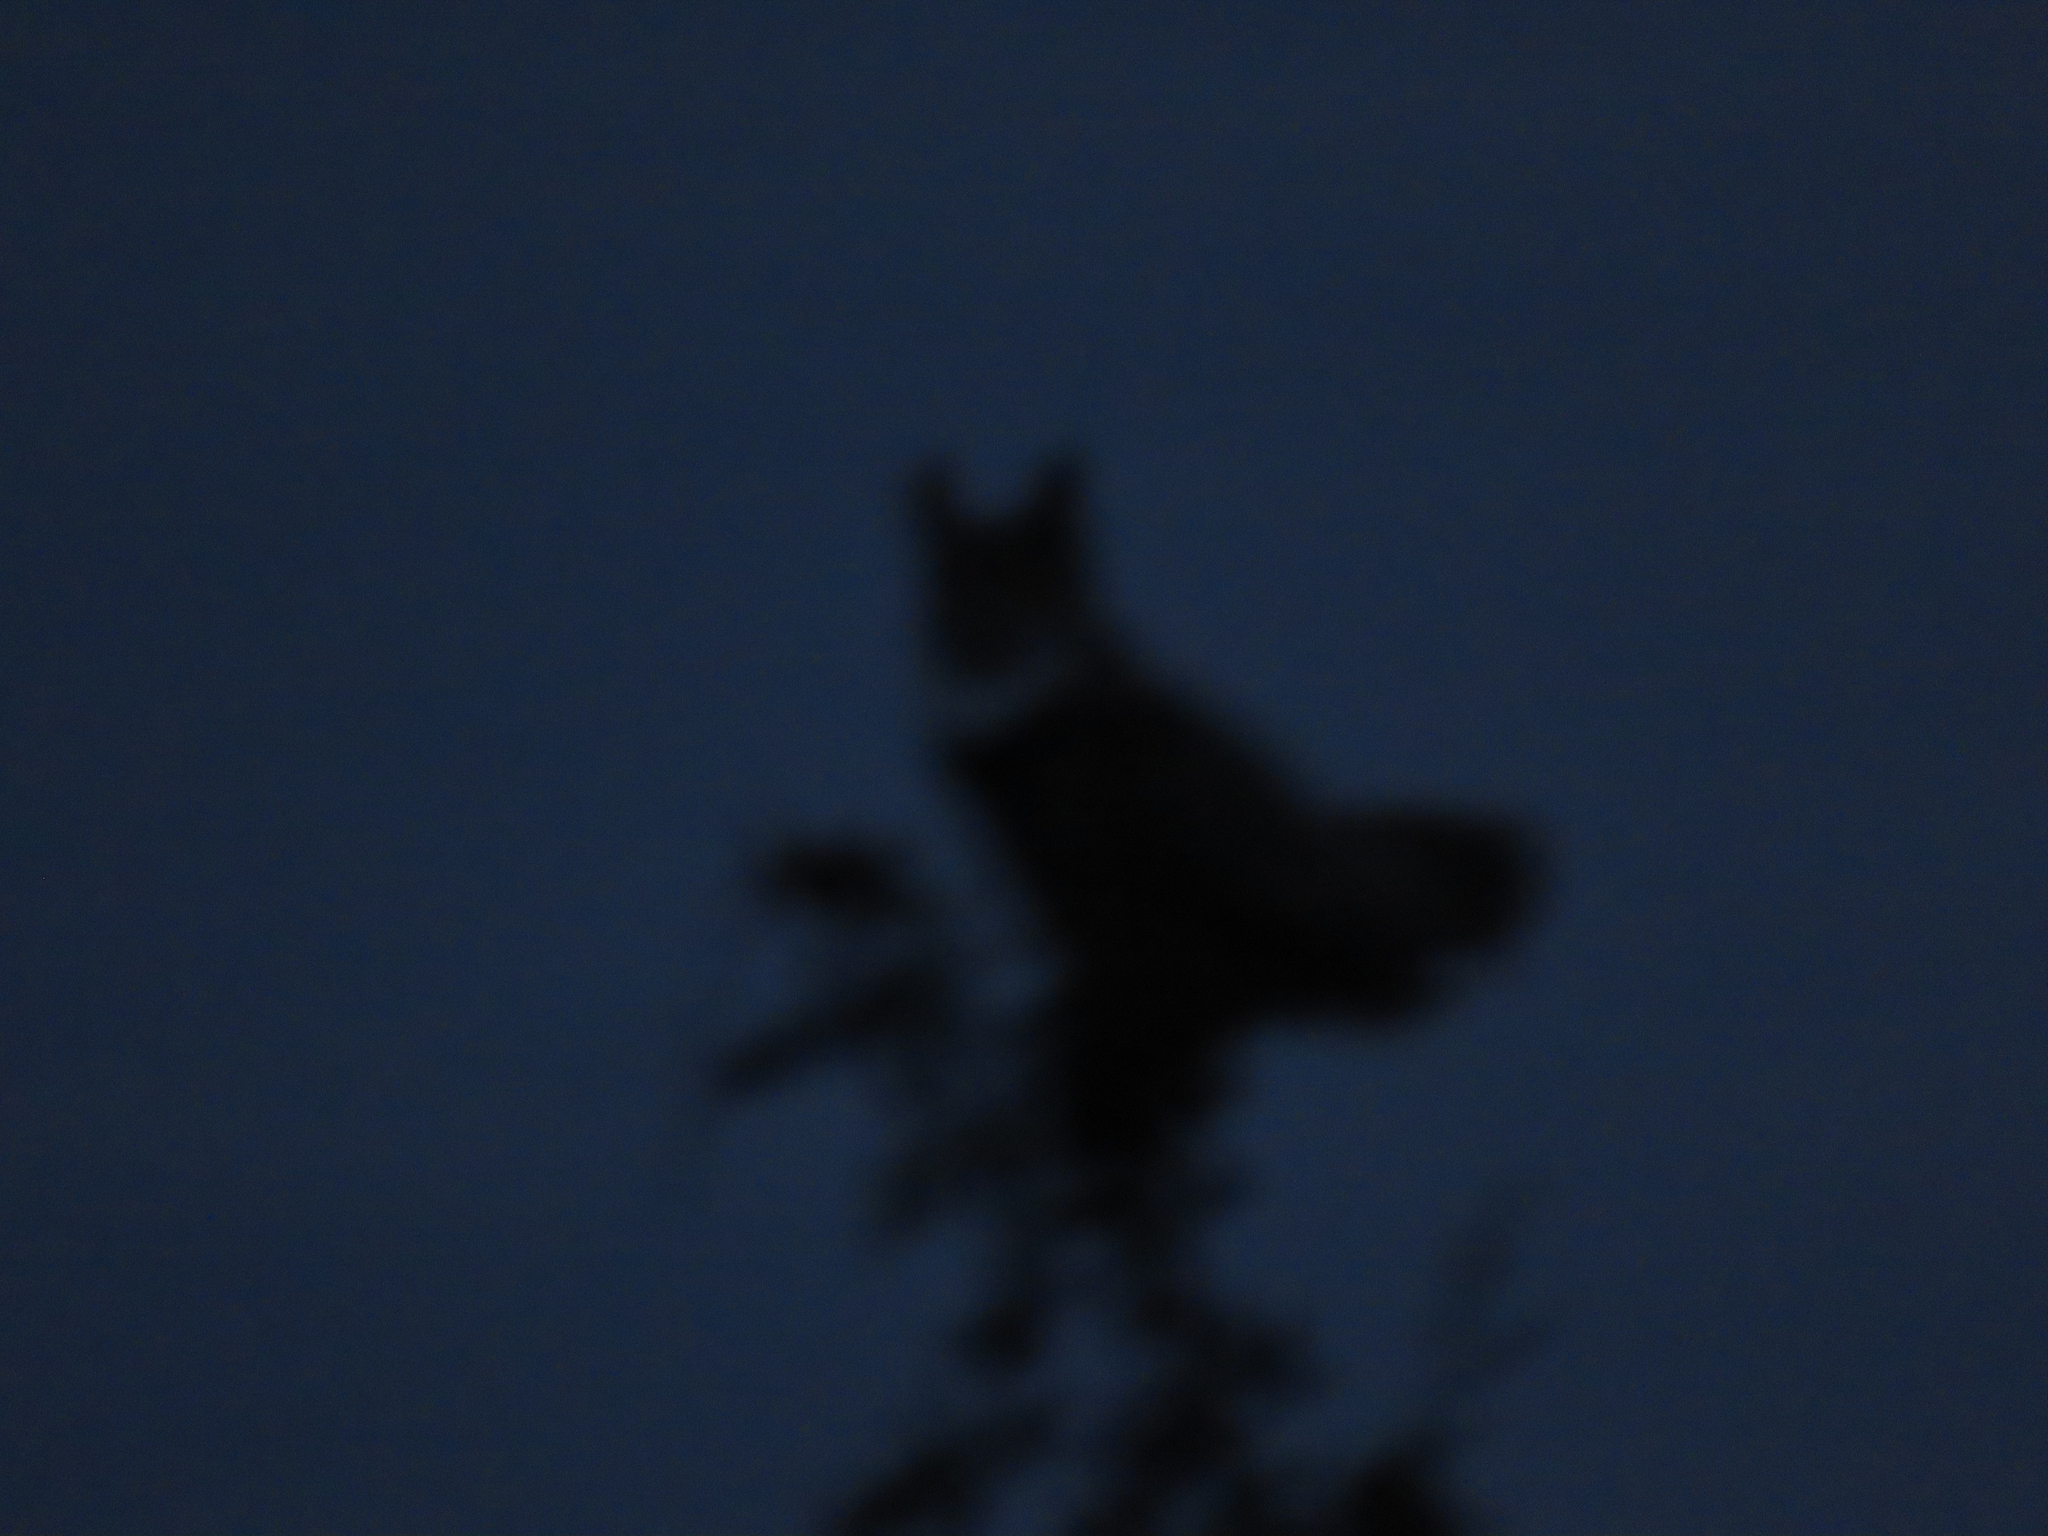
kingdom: Animalia
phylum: Chordata
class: Aves
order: Strigiformes
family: Strigidae
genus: Bubo
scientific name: Bubo virginianus
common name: Great horned owl
